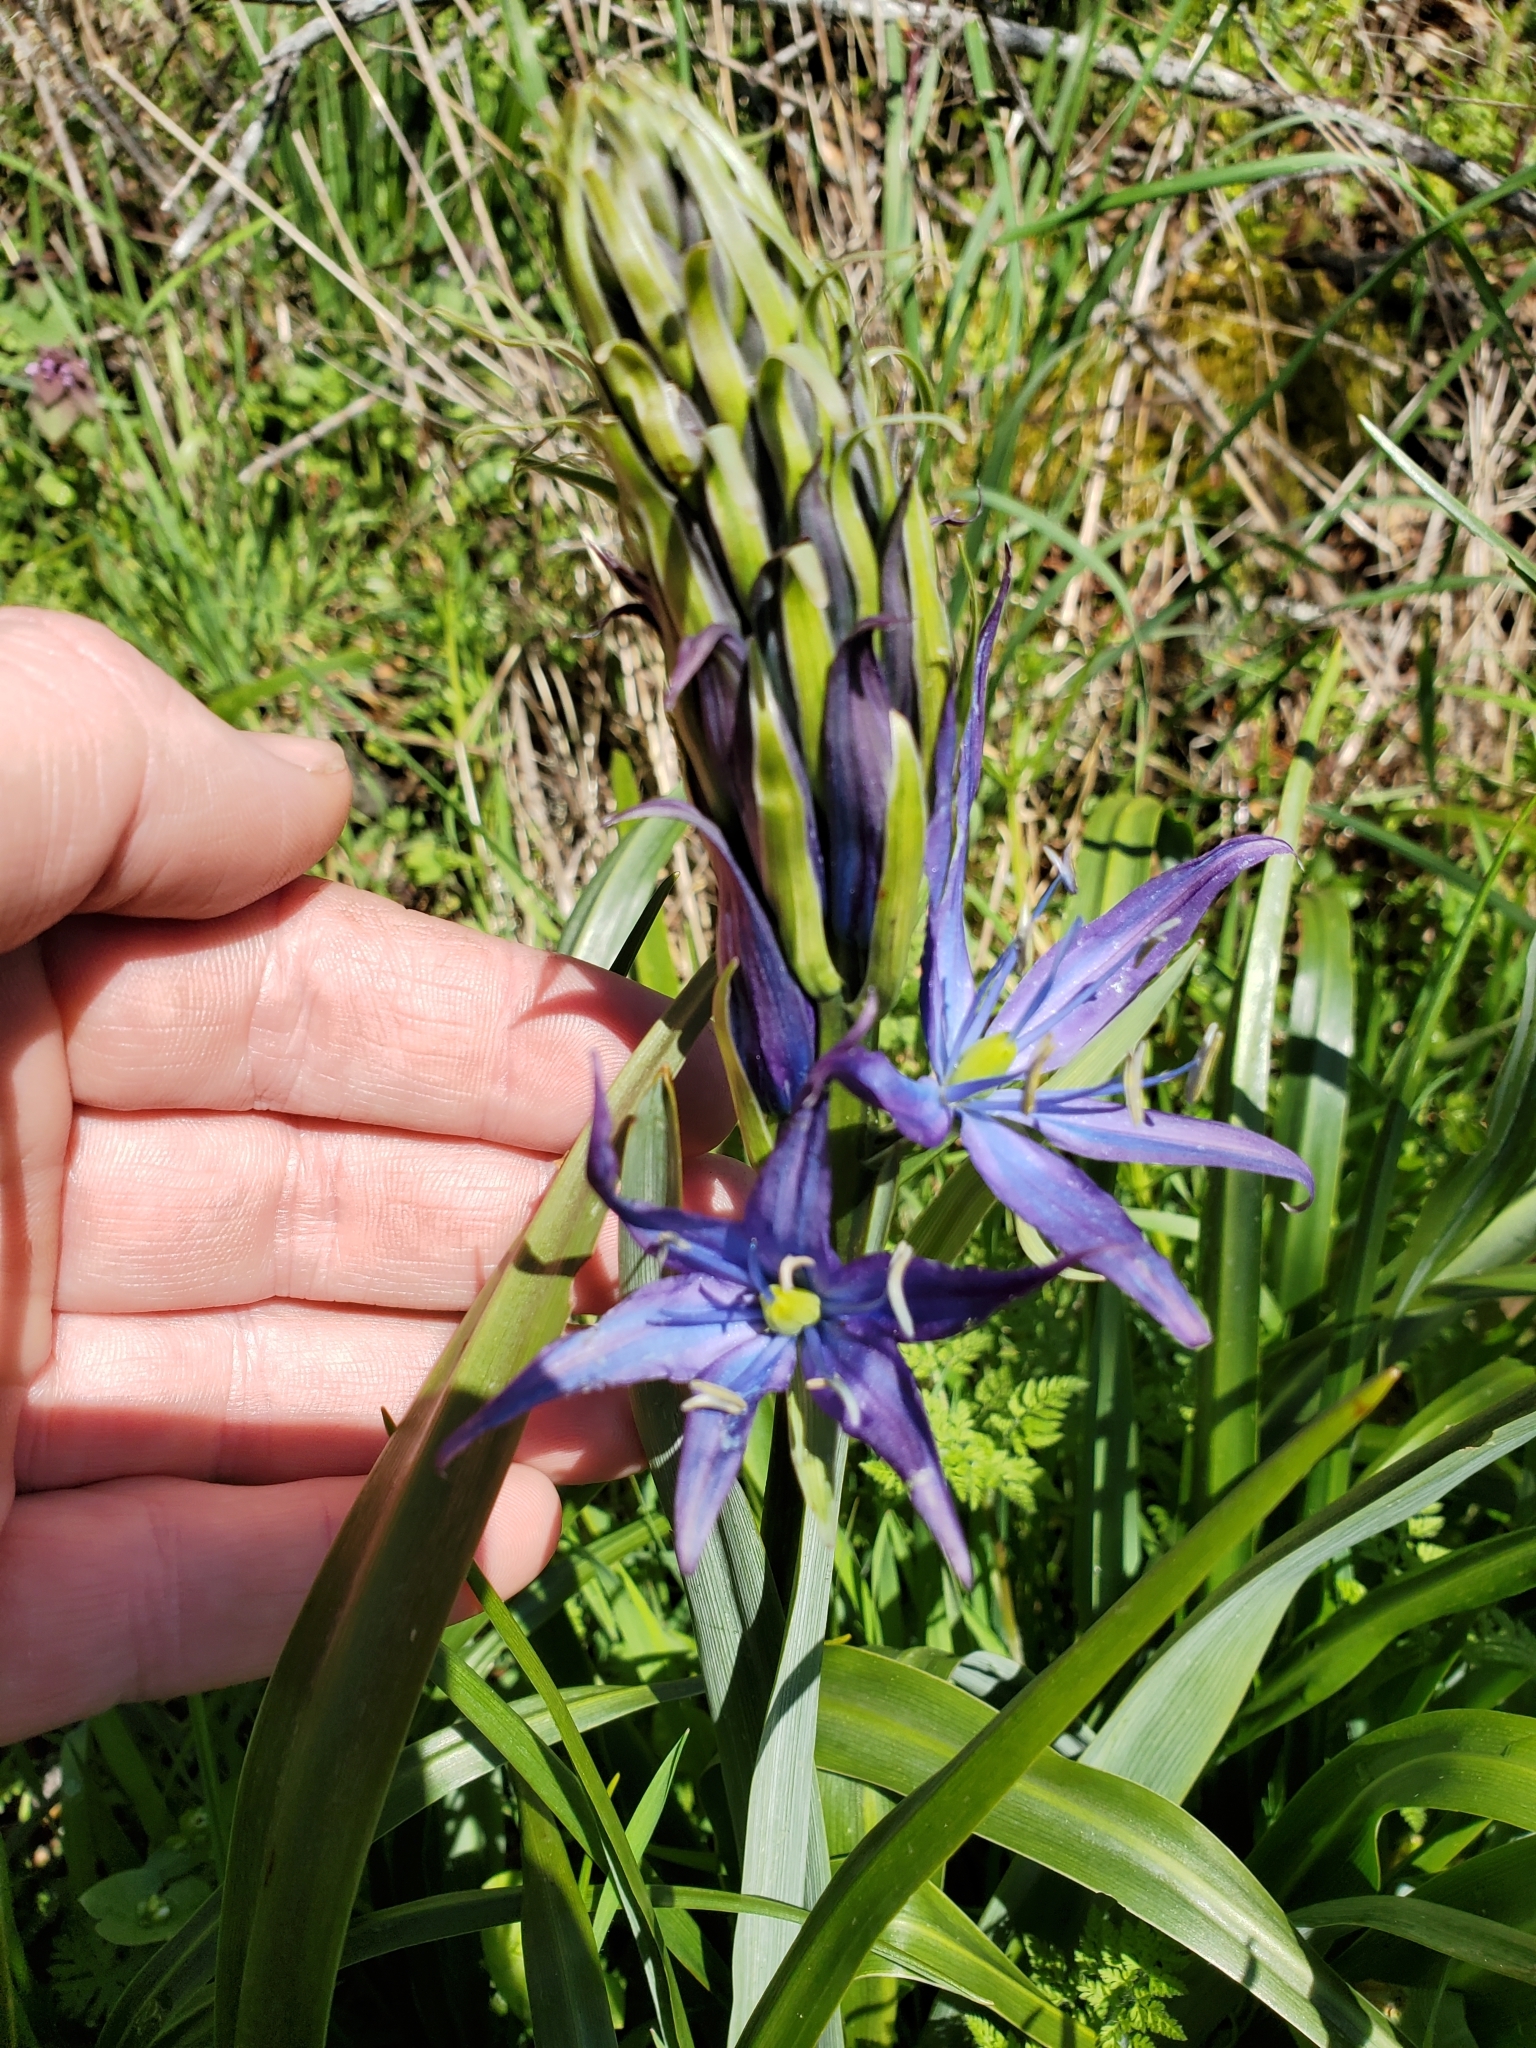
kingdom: Plantae
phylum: Tracheophyta
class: Liliopsida
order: Asparagales
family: Asparagaceae
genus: Camassia
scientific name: Camassia leichtlinii
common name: Leichtlin's camas
